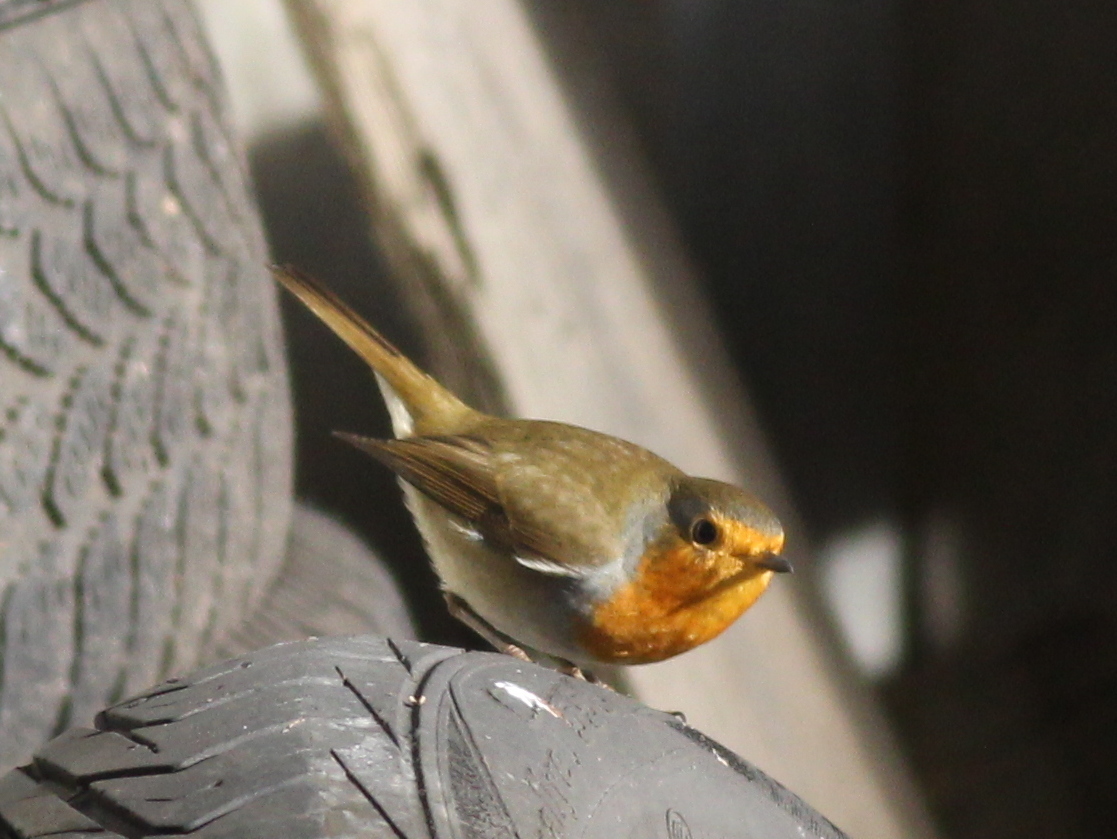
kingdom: Animalia
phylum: Chordata
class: Aves
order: Passeriformes
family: Muscicapidae
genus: Erithacus
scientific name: Erithacus rubecula
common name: European robin
